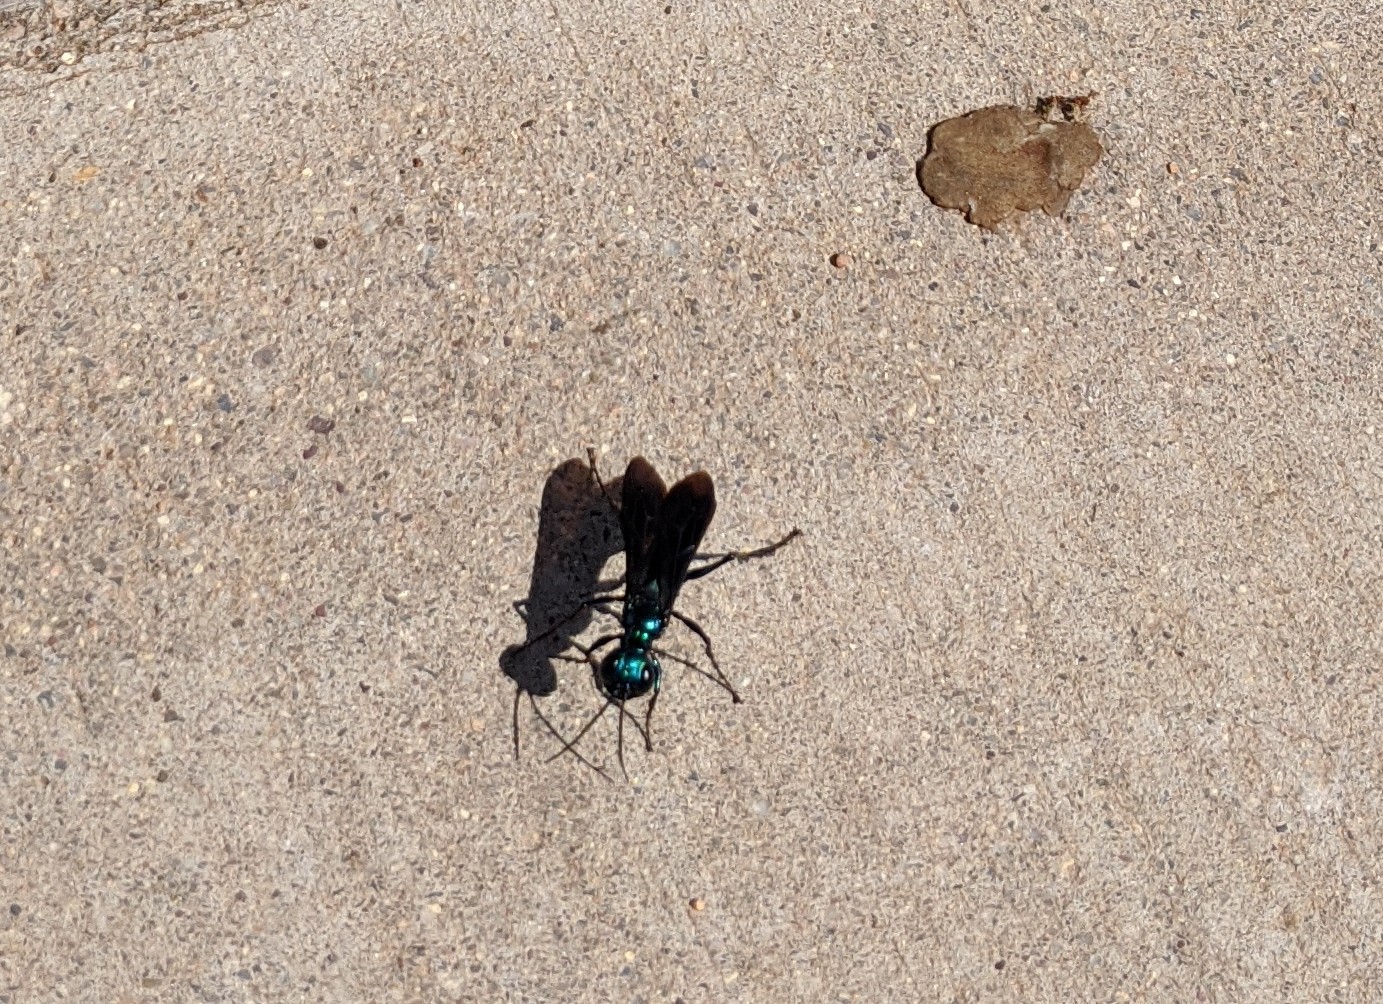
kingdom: Animalia
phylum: Arthropoda
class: Insecta
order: Hymenoptera
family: Sphecidae
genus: Chlorion
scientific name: Chlorion
